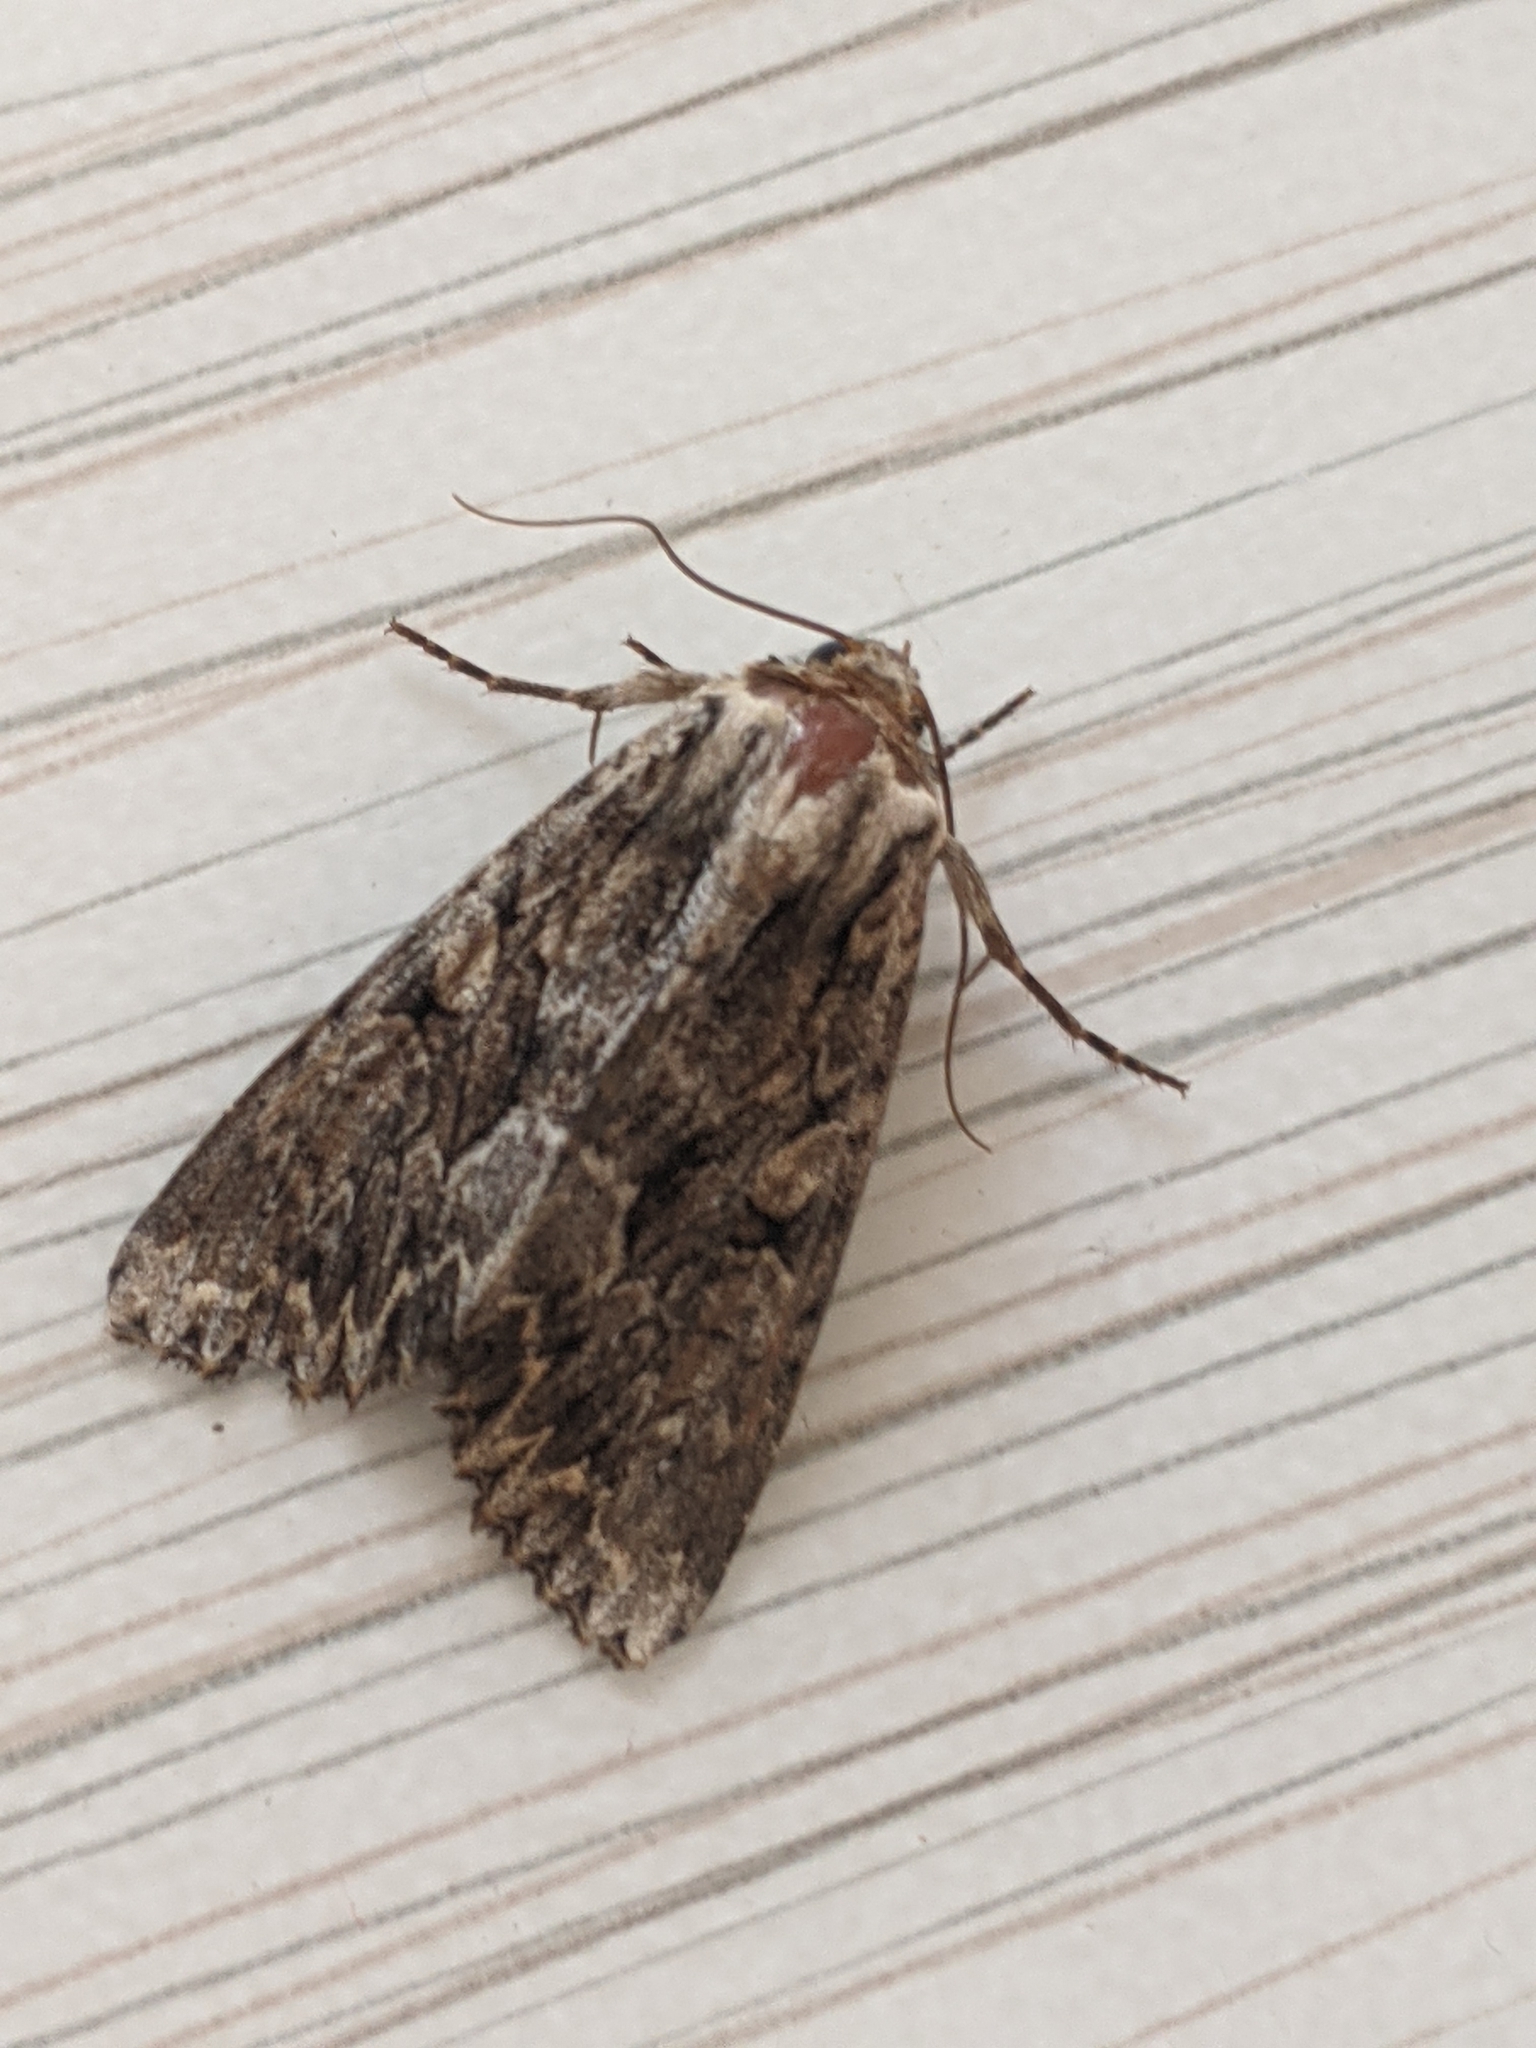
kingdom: Animalia
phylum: Arthropoda
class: Insecta
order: Lepidoptera
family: Noctuidae
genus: Apamea
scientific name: Apamea monoglypha
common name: Dark arches
